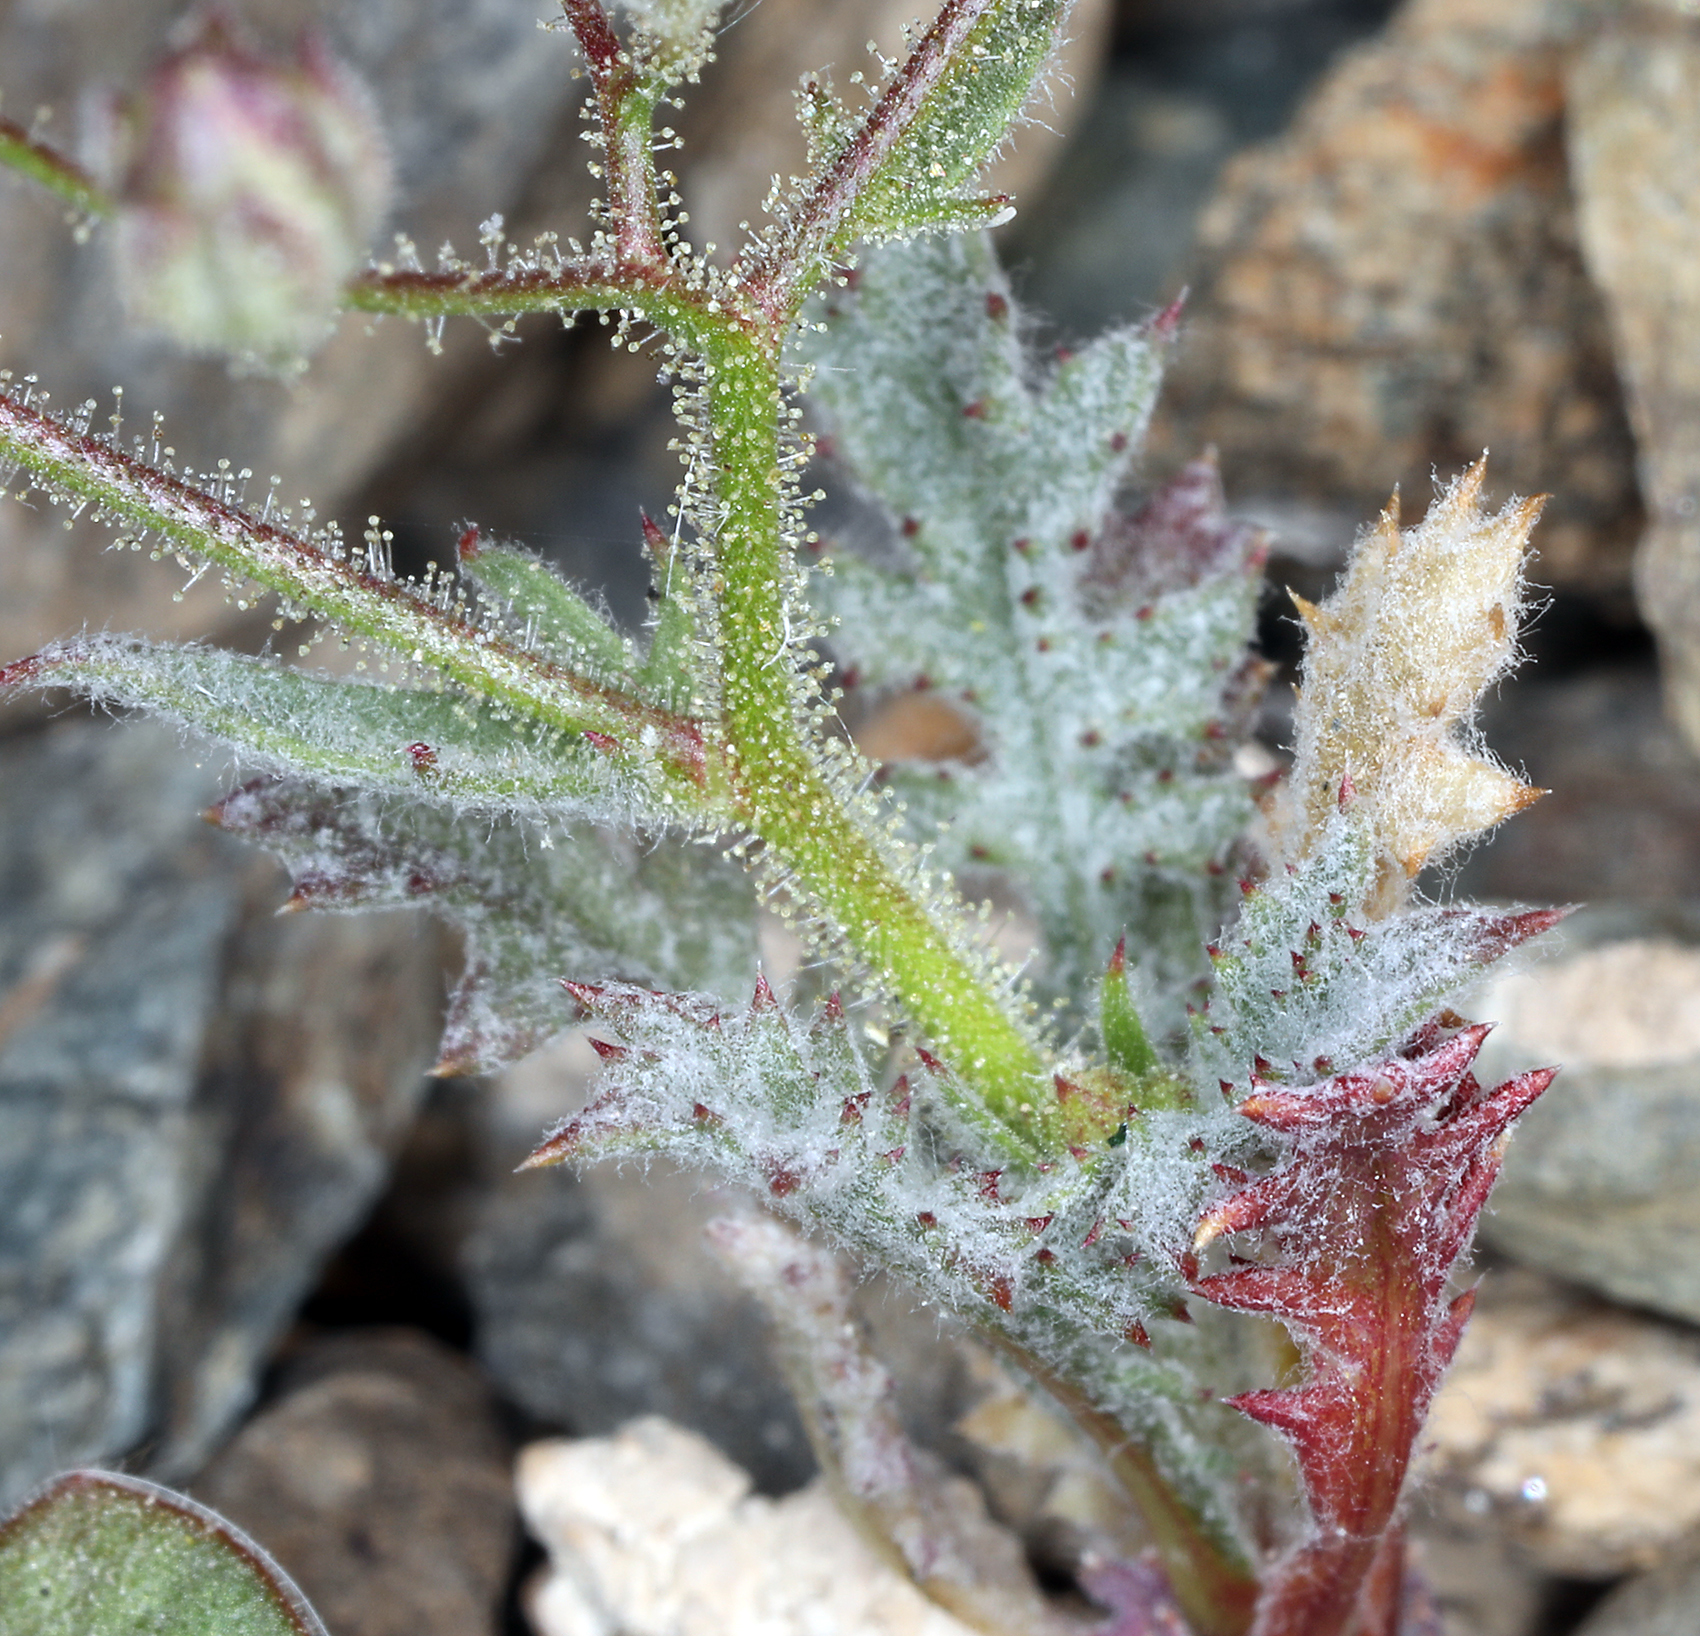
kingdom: Plantae
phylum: Tracheophyta
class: Magnoliopsida
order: Ericales
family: Polemoniaceae
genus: Gilia
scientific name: Gilia cana
